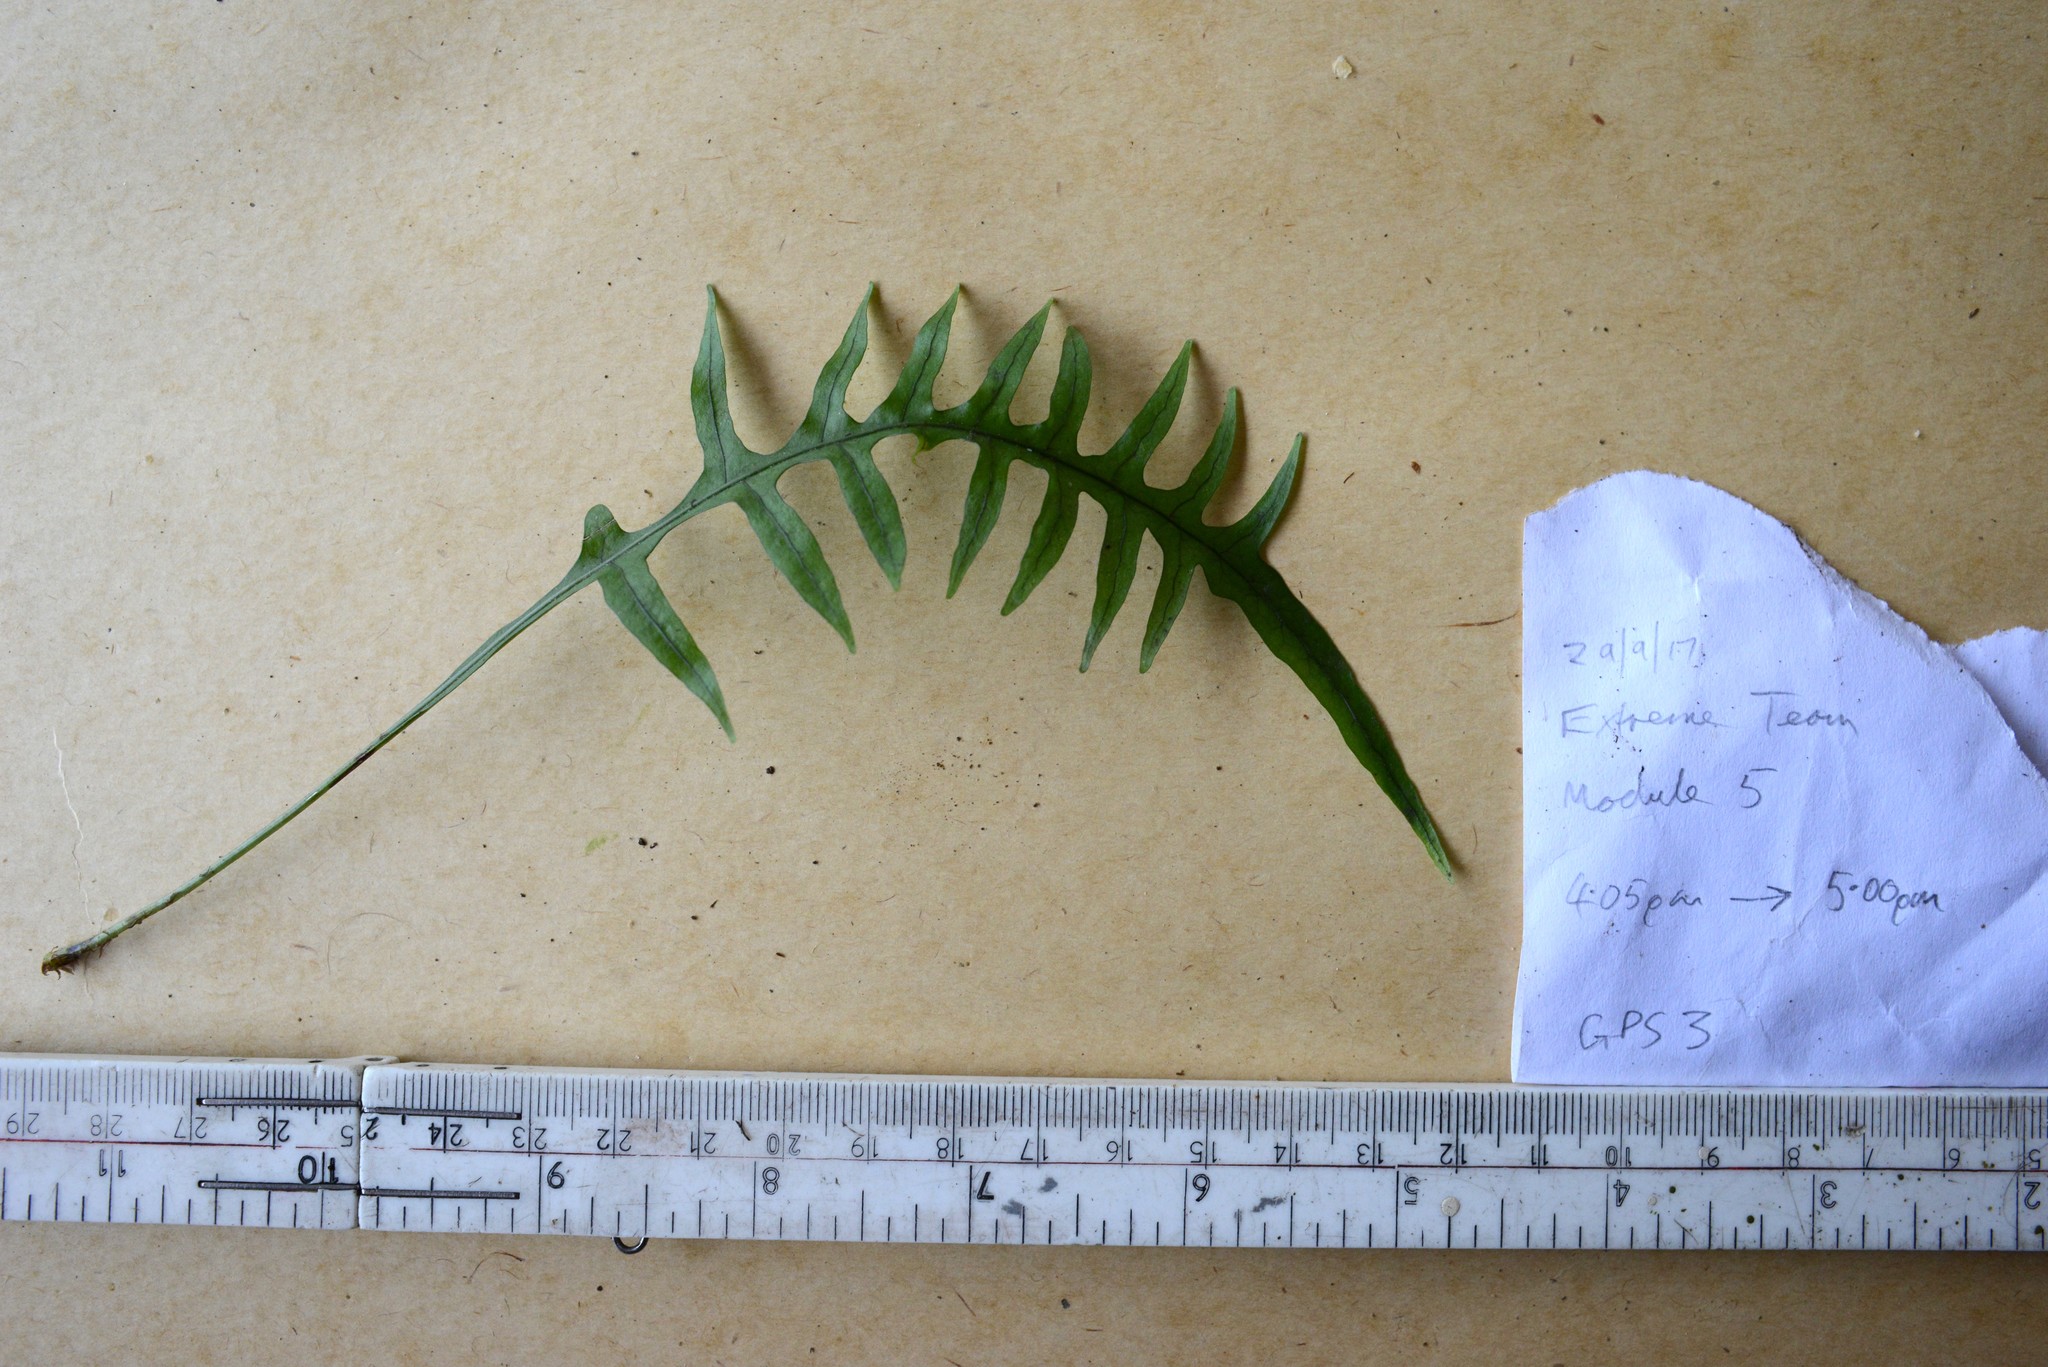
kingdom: Plantae
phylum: Tracheophyta
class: Polypodiopsida
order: Polypodiales
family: Polypodiaceae
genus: Lecanopteris
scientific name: Lecanopteris scandens
